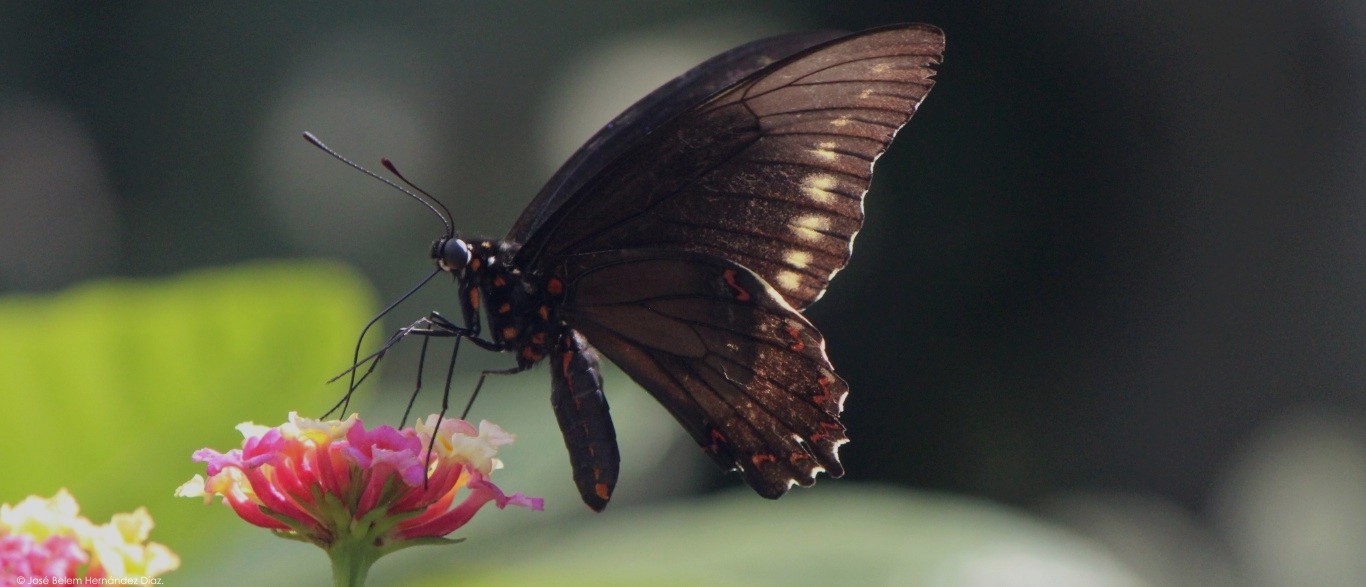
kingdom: Animalia
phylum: Arthropoda
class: Insecta
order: Lepidoptera
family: Papilionidae
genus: Battus
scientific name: Battus polydamas
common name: Polydamas swallowtail
